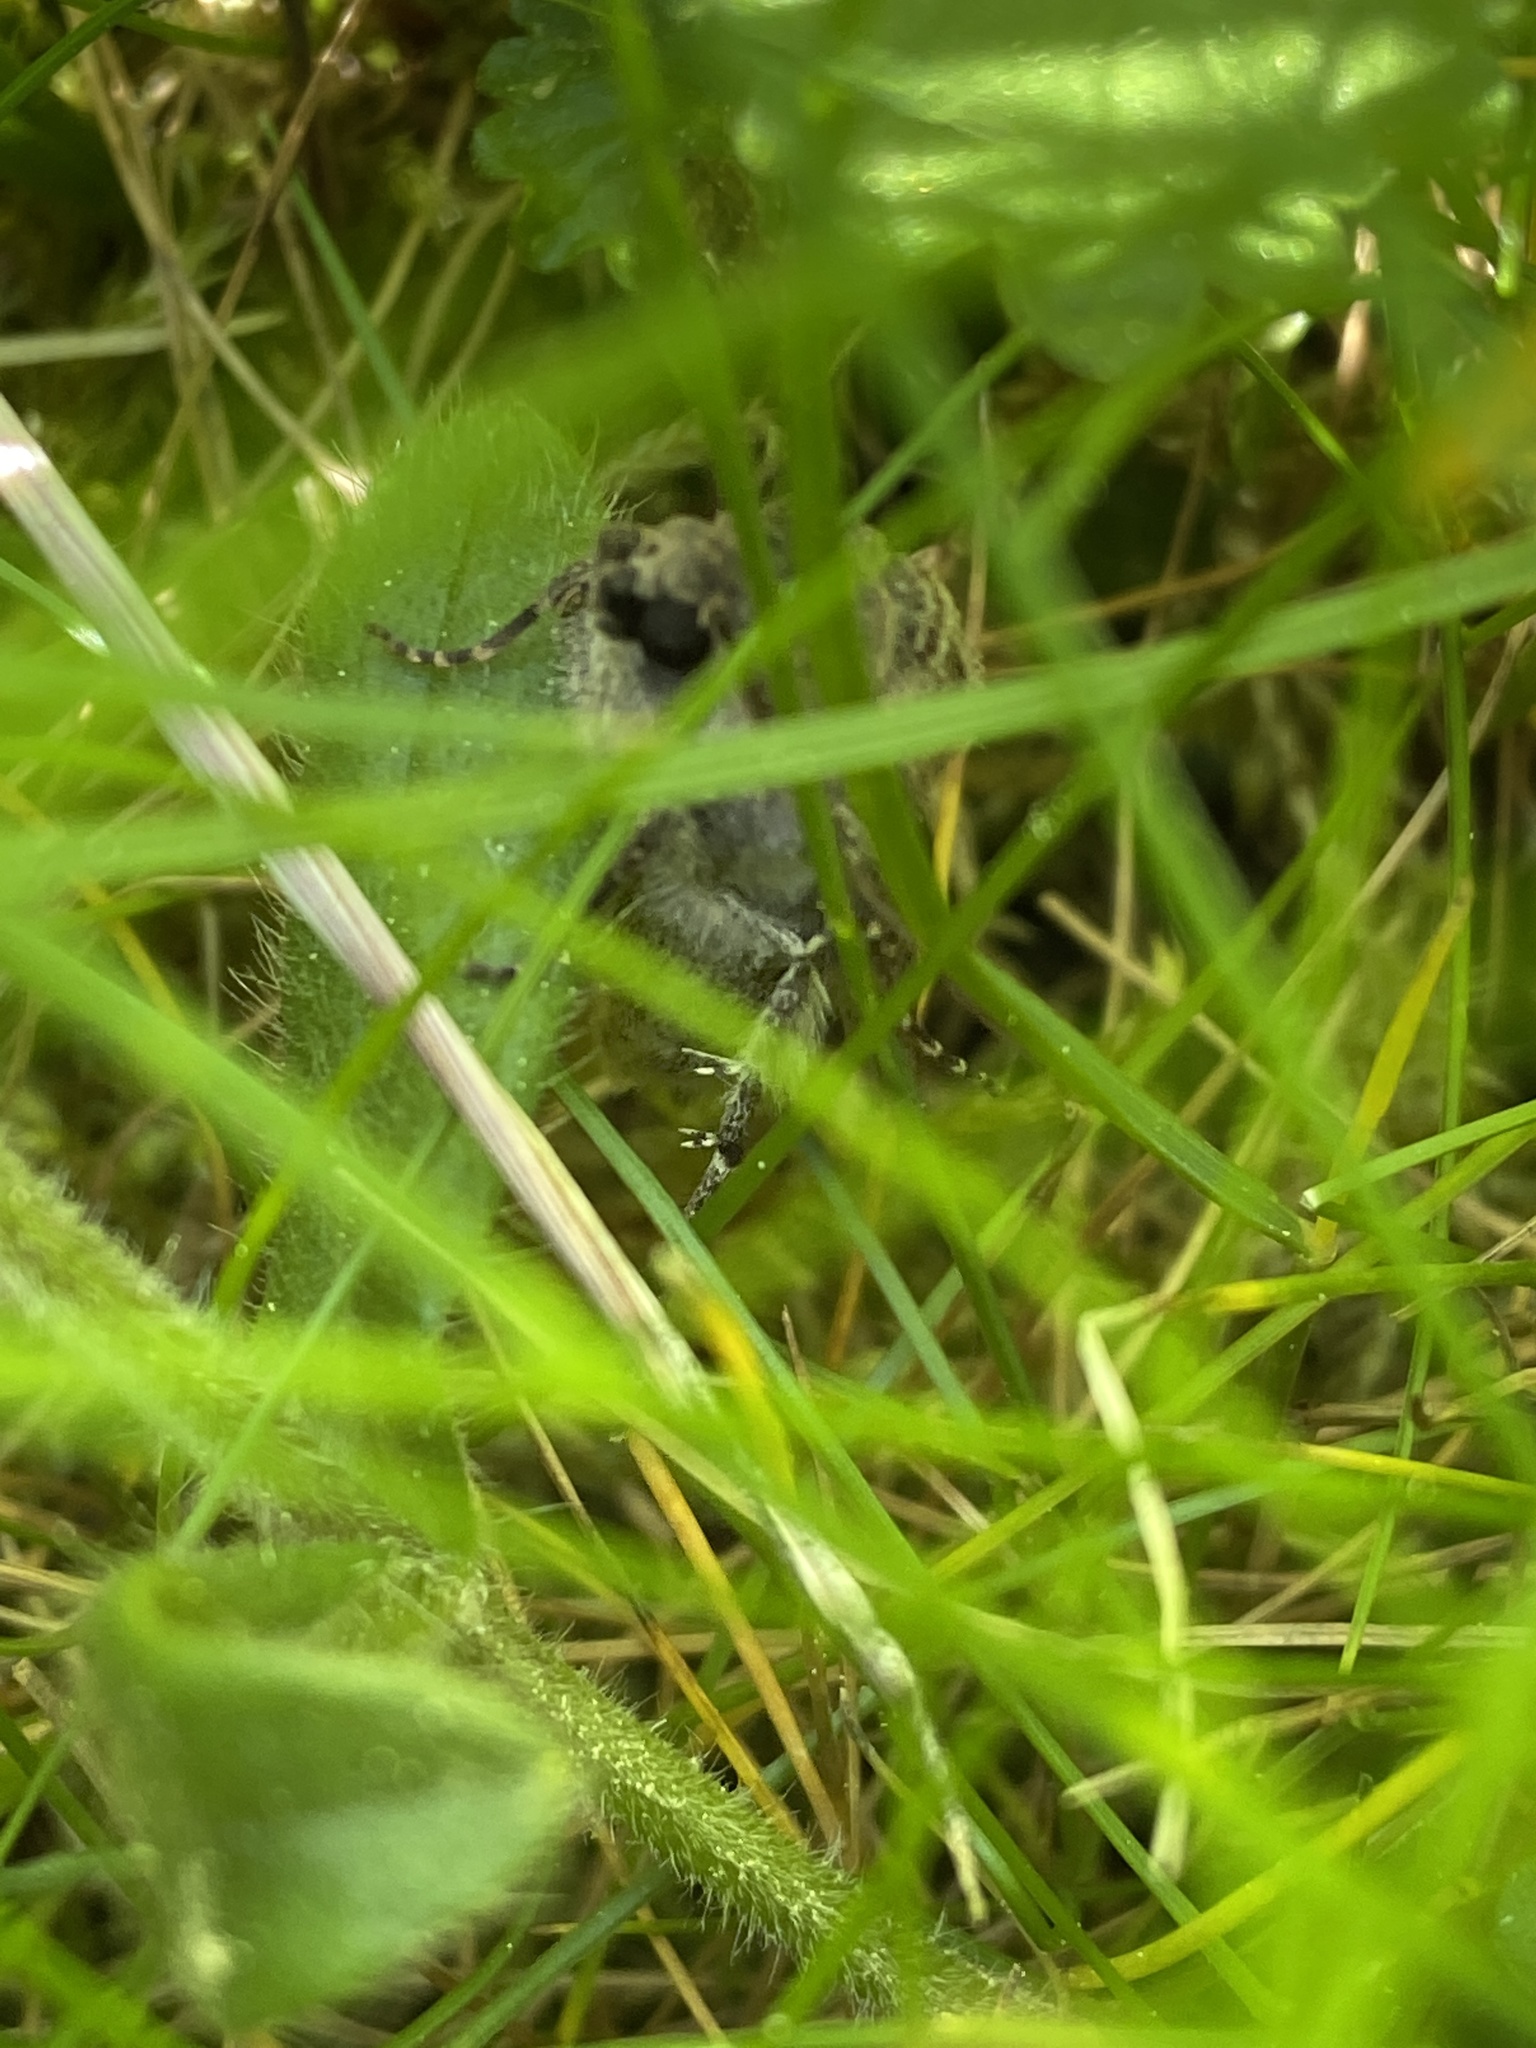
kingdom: Animalia
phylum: Arthropoda
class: Insecta
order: Lepidoptera
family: Noctuidae
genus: Agrotis
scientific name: Agrotis segetum
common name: Turnip moth
